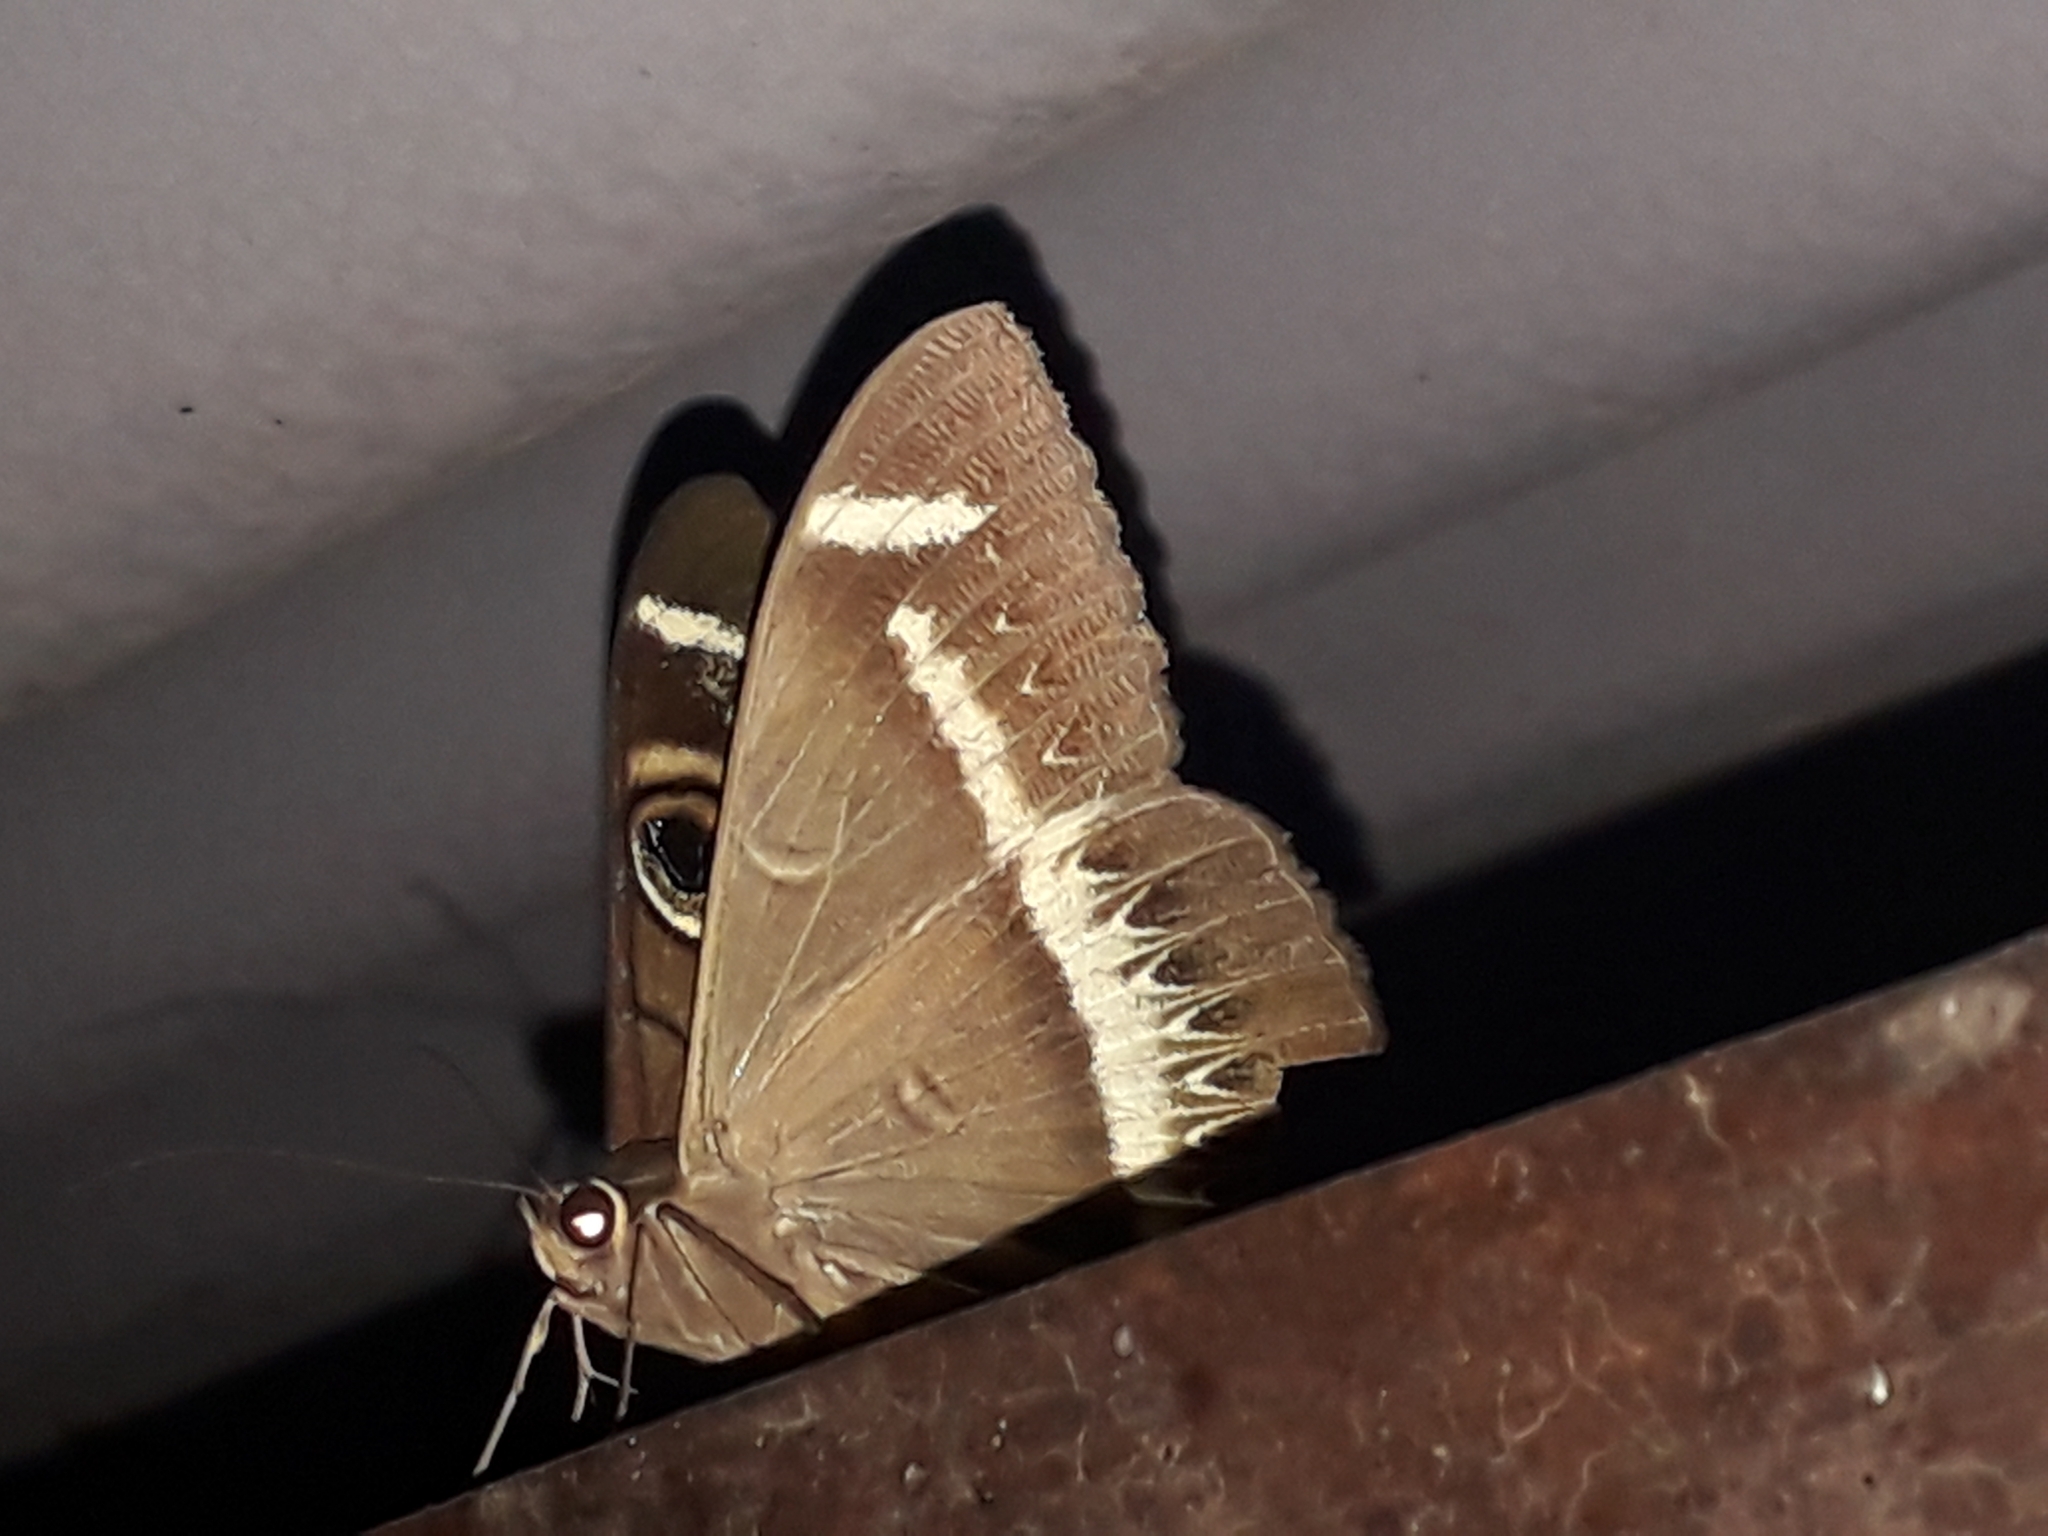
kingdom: Animalia
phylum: Arthropoda
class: Insecta
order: Lepidoptera
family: Erebidae
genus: Cyligramma
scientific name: Cyligramma latona
